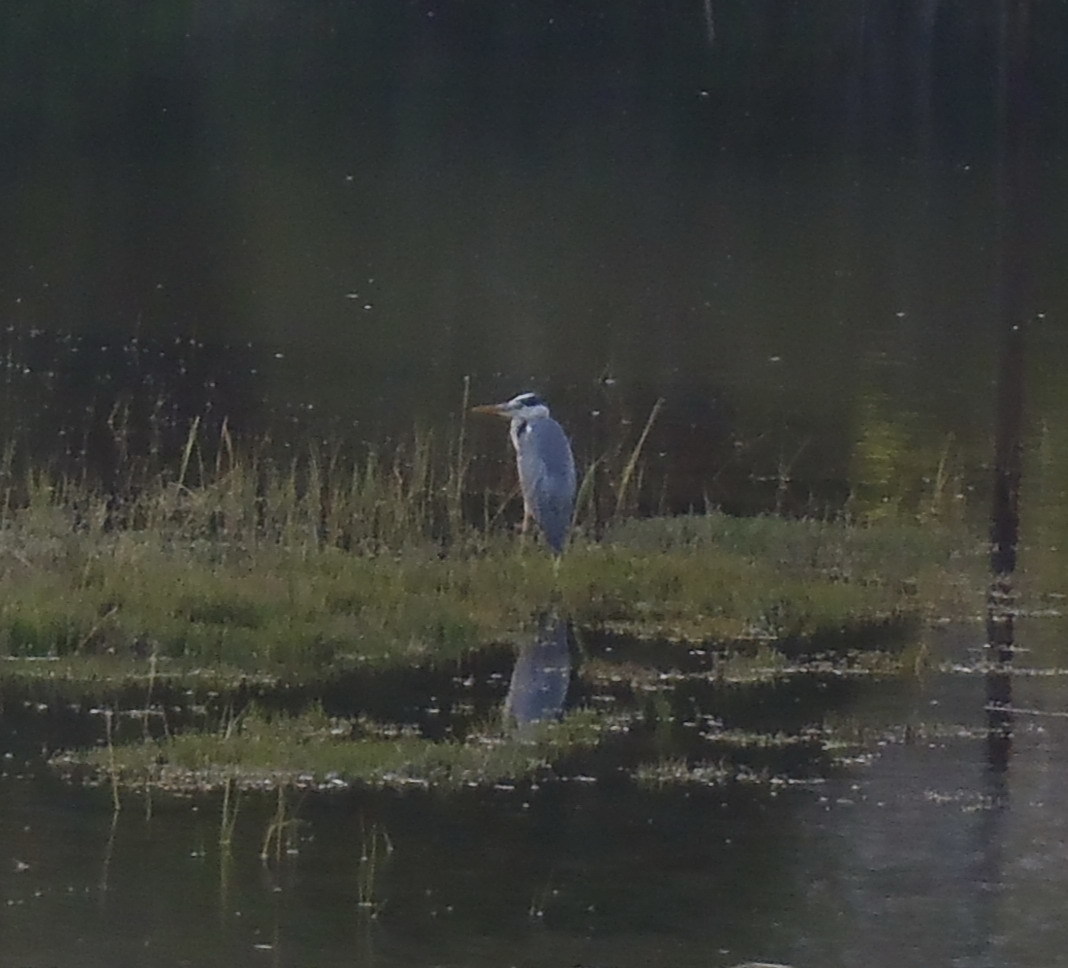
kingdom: Animalia
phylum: Chordata
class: Aves
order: Pelecaniformes
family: Ardeidae
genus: Ardea
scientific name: Ardea cinerea
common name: Grey heron
